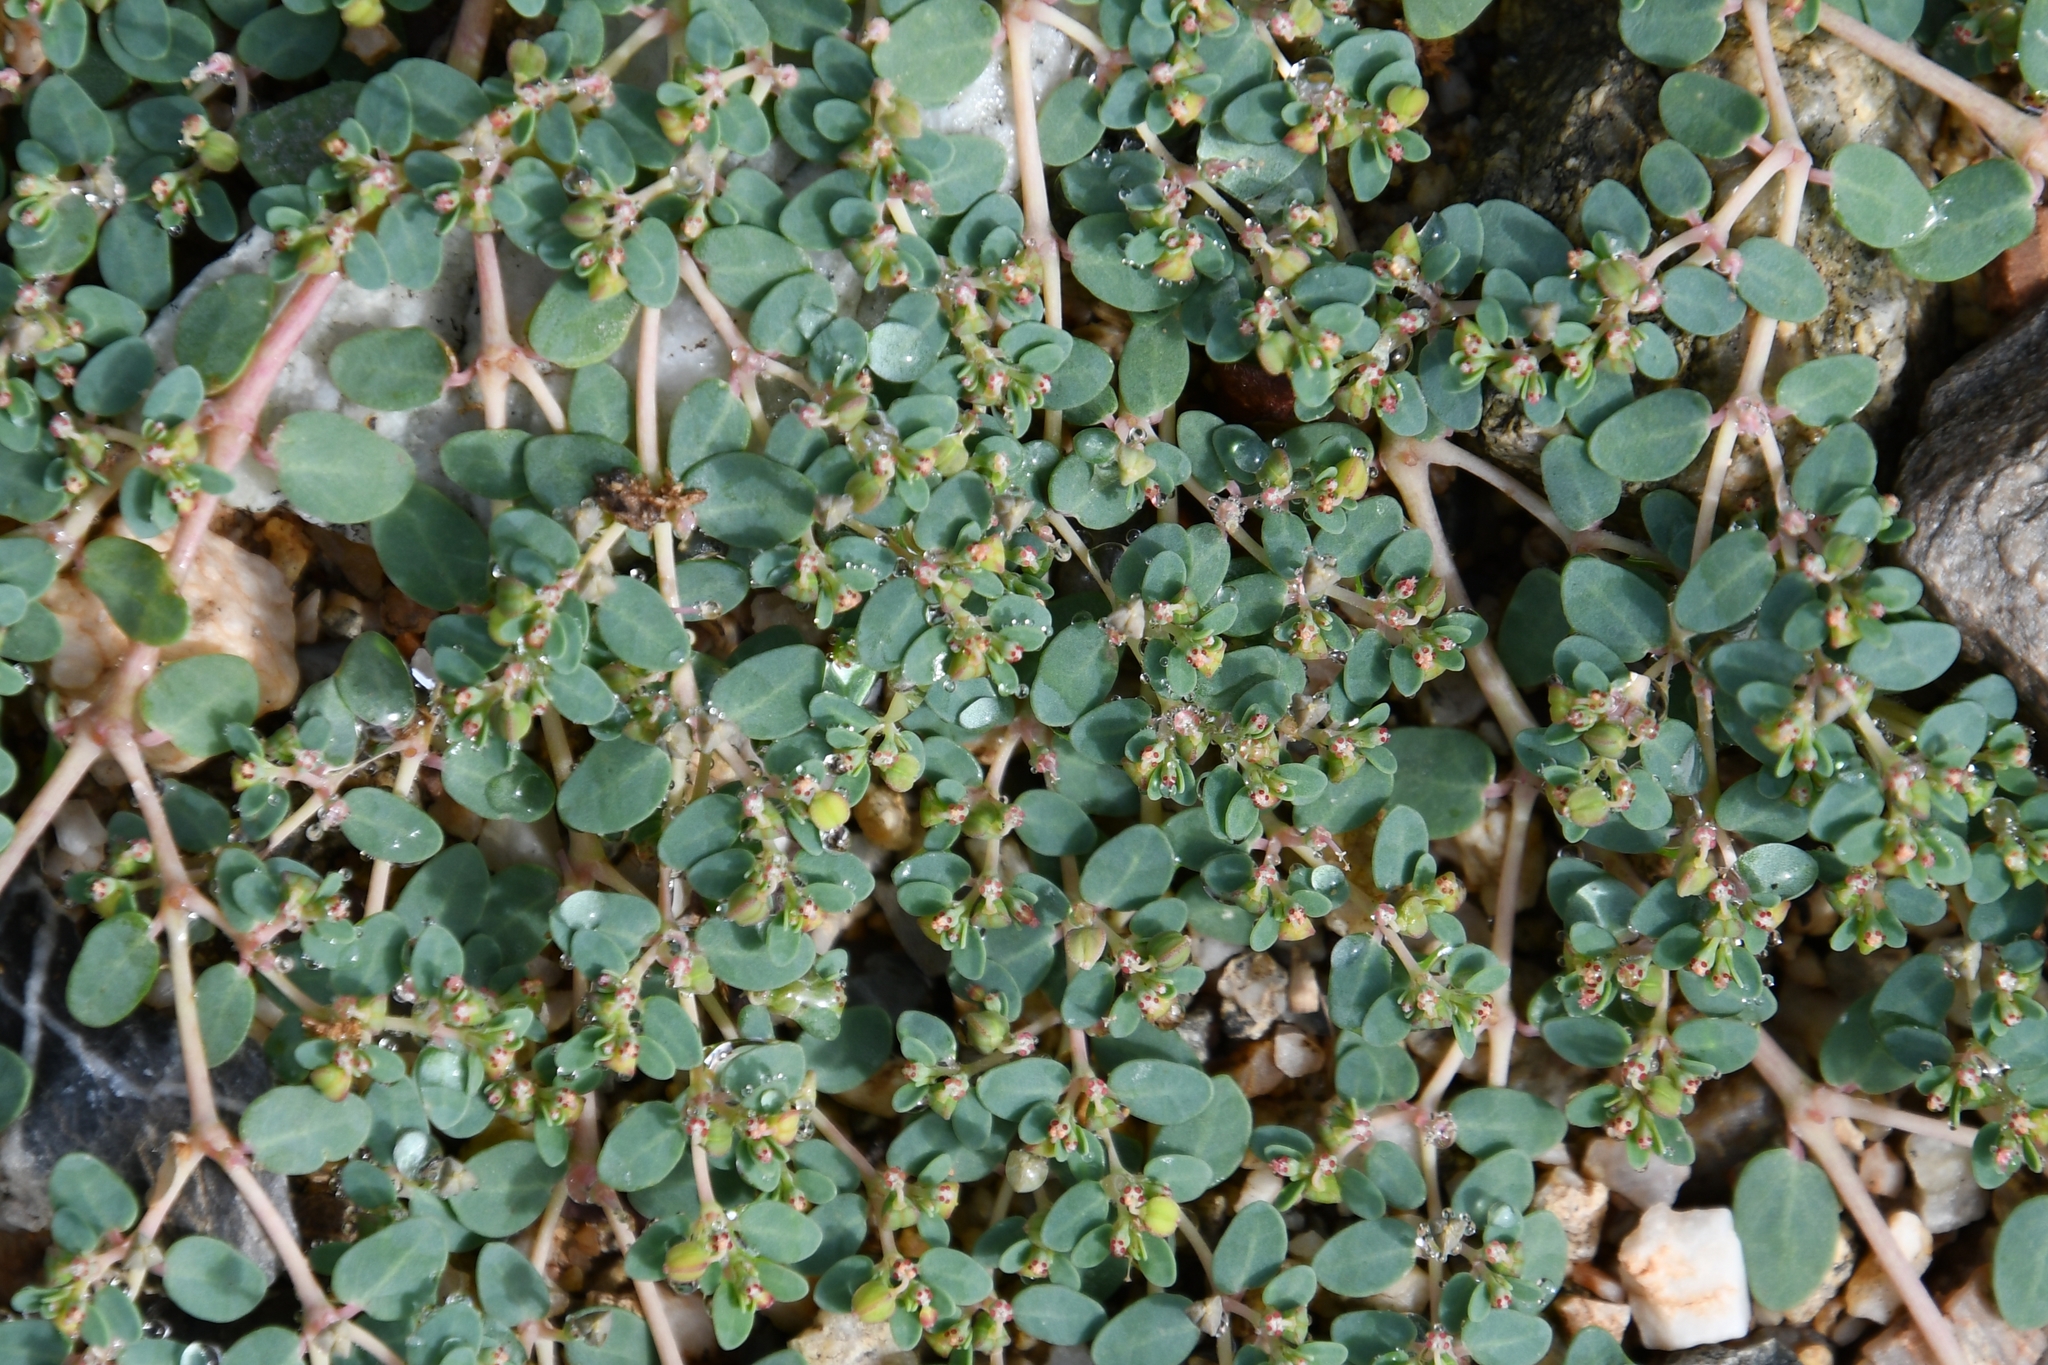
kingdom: Plantae
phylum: Tracheophyta
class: Magnoliopsida
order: Malpighiales
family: Euphorbiaceae
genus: Euphorbia
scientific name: Euphorbia micromera
